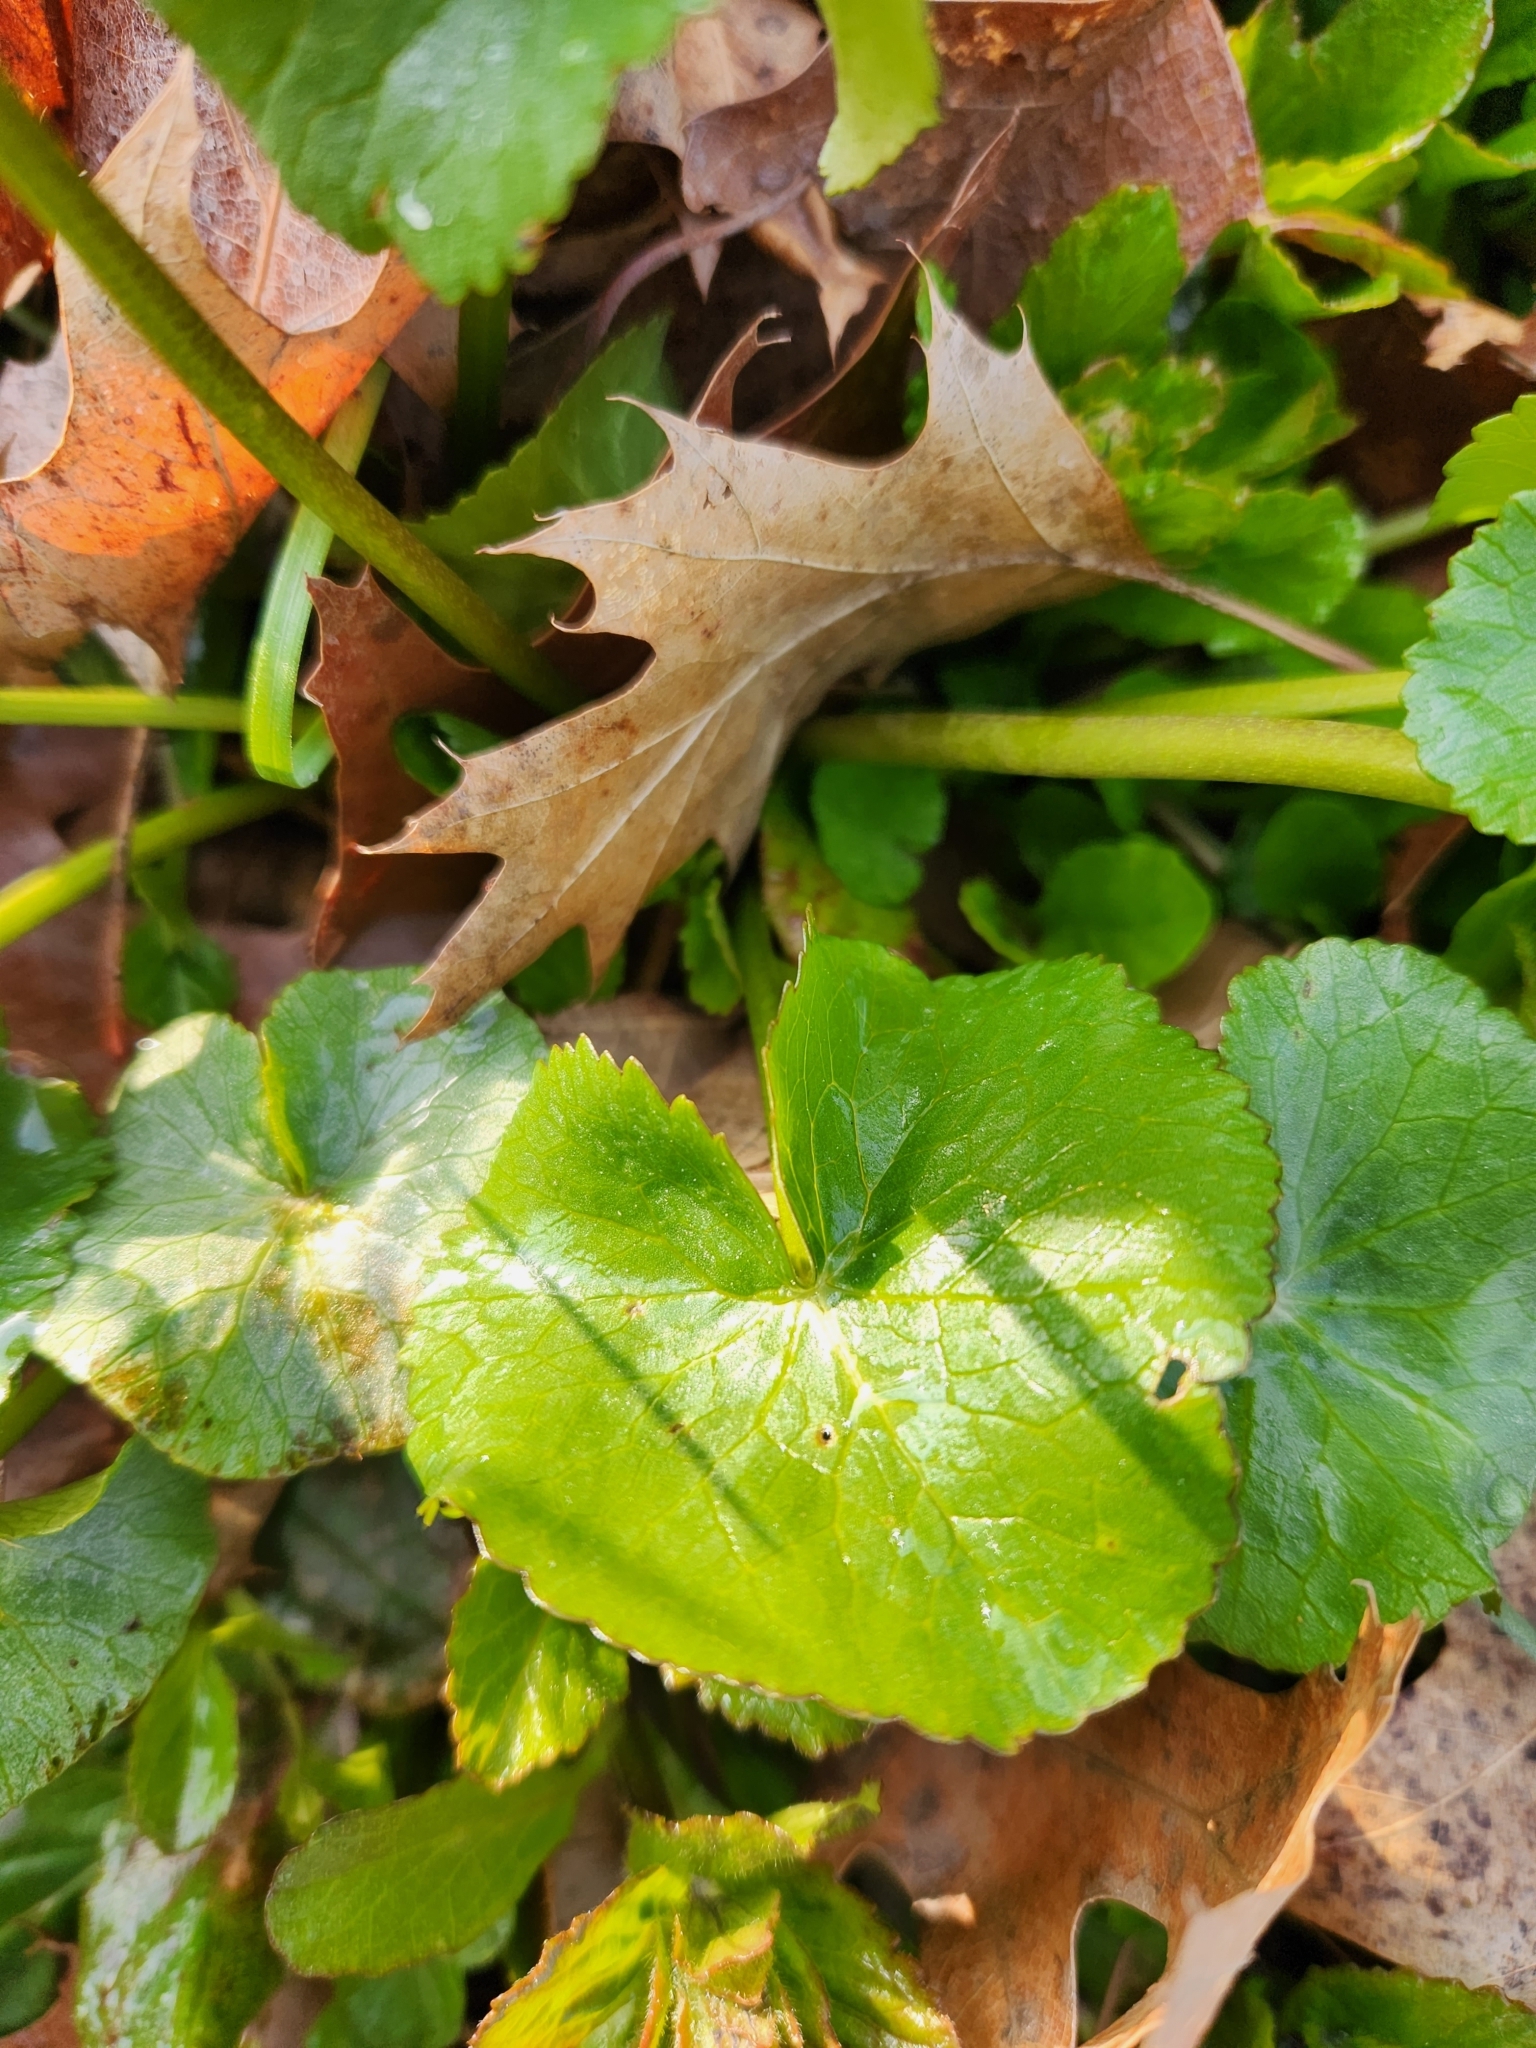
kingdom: Plantae
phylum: Tracheophyta
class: Magnoliopsida
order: Ranunculales
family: Ranunculaceae
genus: Caltha
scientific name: Caltha palustris
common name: Marsh marigold
